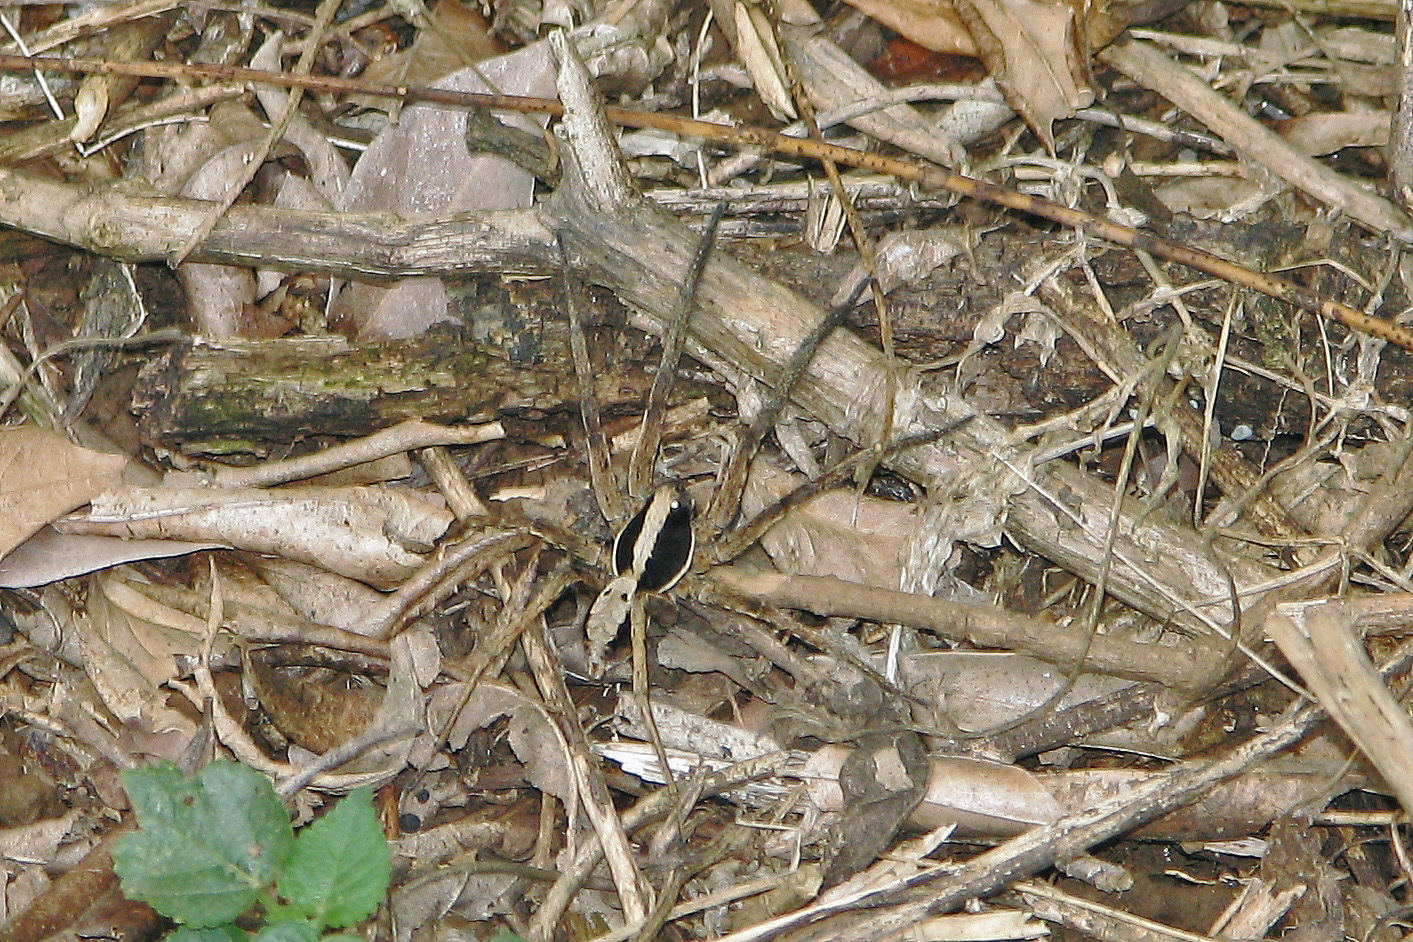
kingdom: Animalia
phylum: Arthropoda
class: Arachnida
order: Araneae
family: Lycosidae
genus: Hogna
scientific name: Hogna gumia
